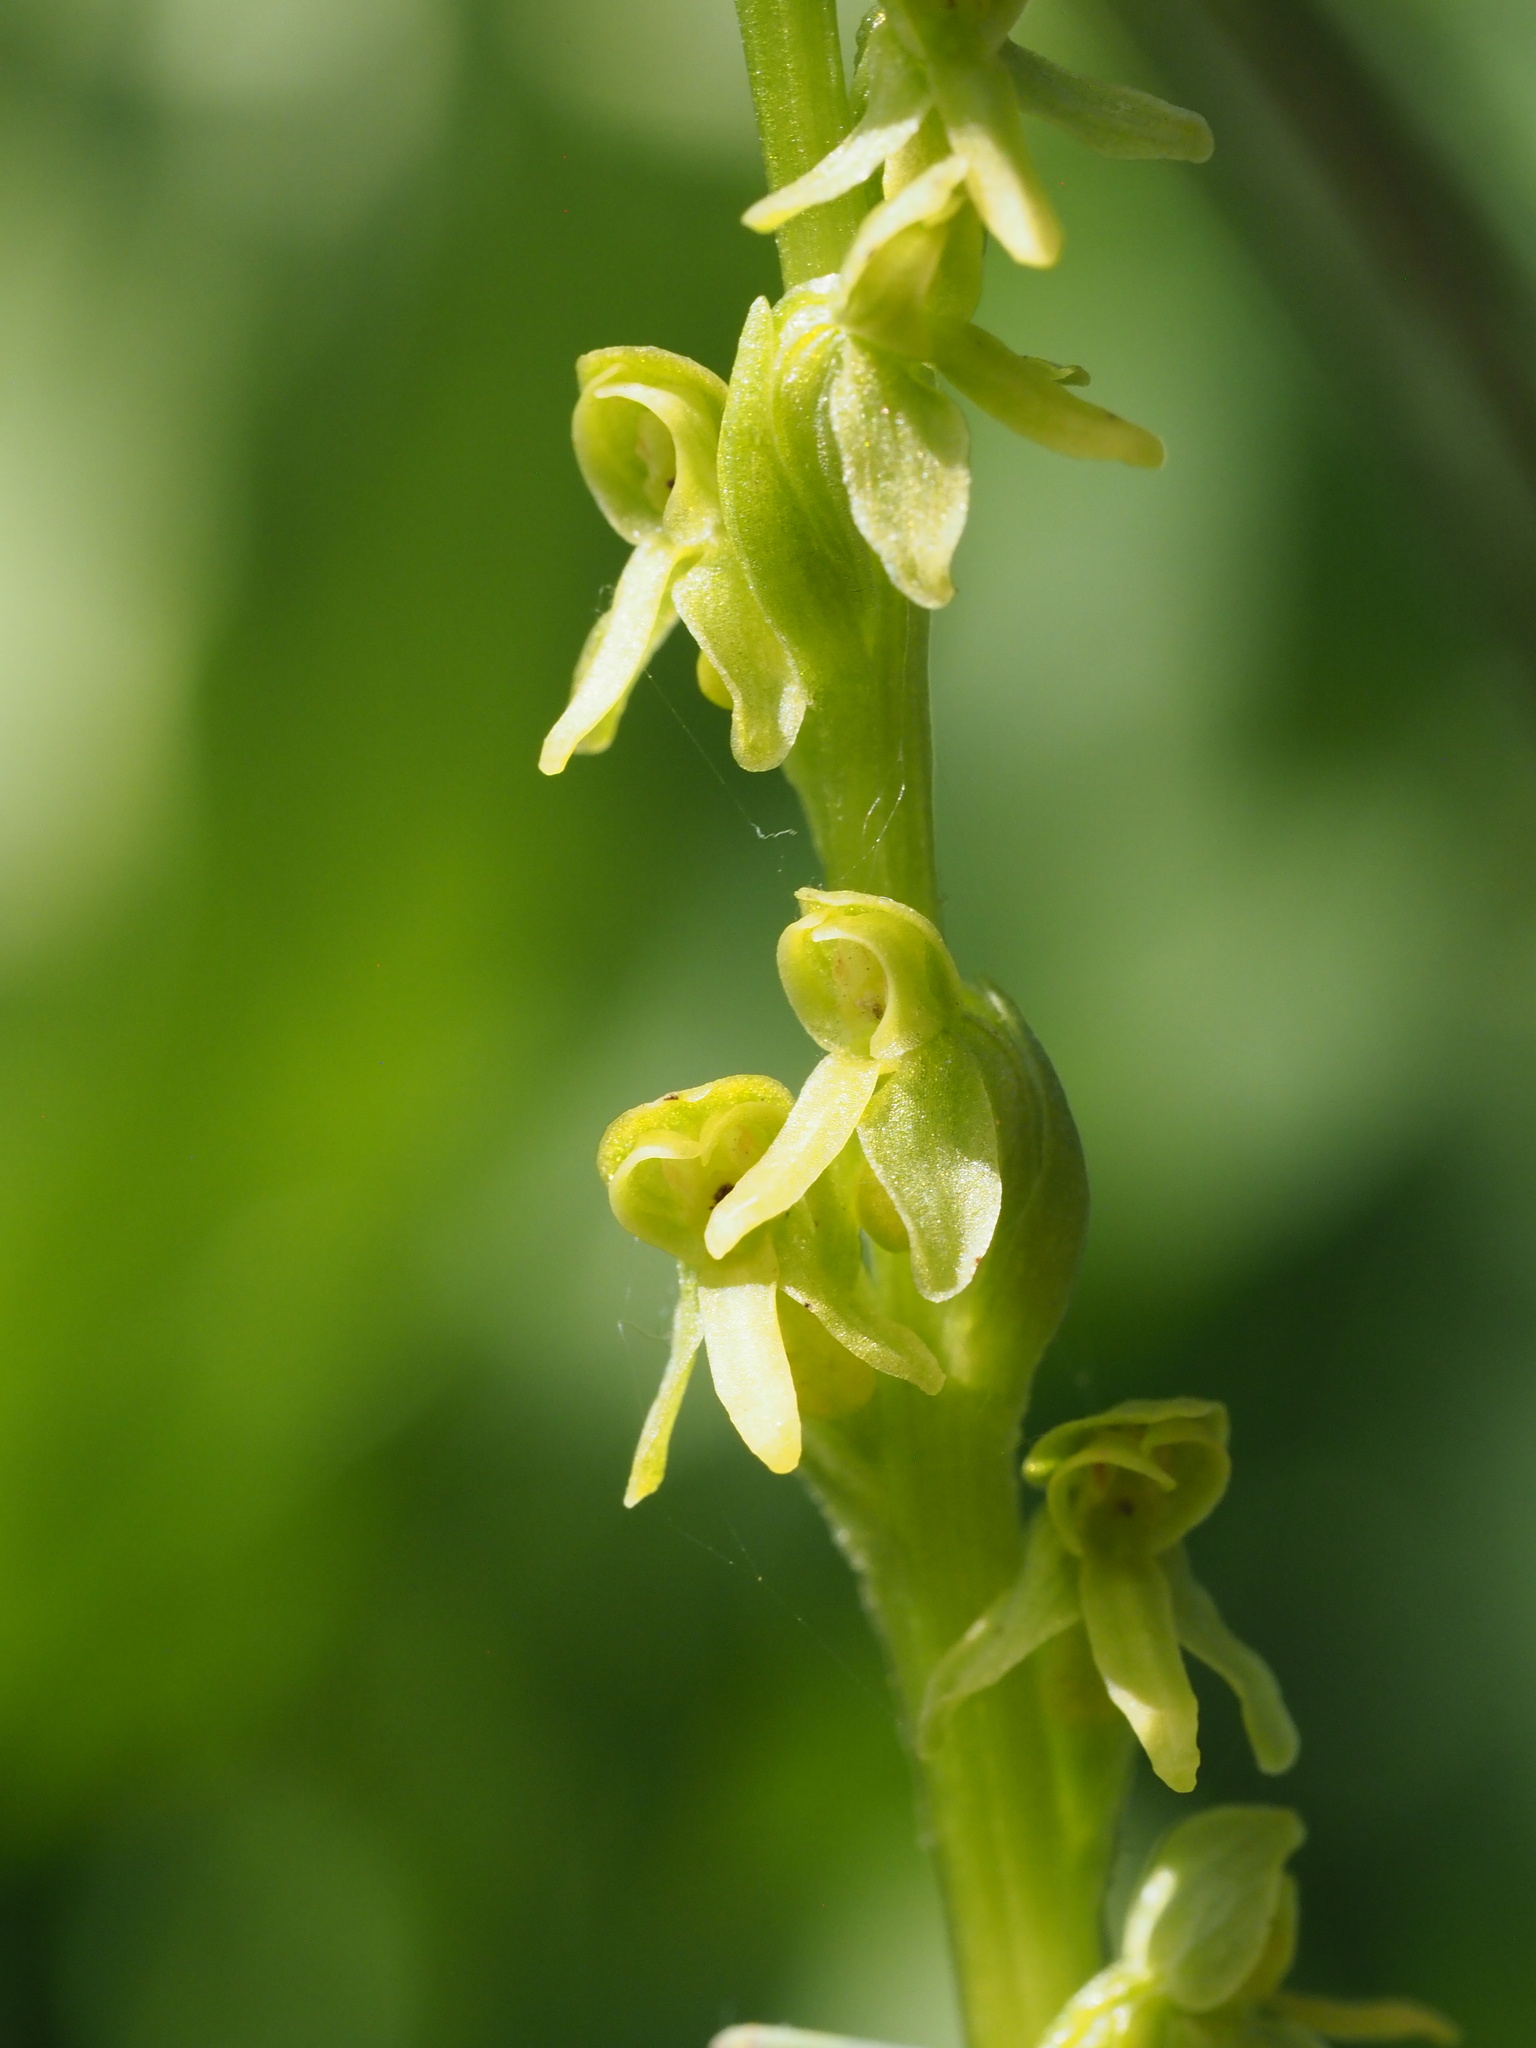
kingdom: Plantae
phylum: Tracheophyta
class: Liliopsida
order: Asparagales
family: Orchidaceae
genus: Platanthera
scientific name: Platanthera stricta
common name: Slender bog orchid
